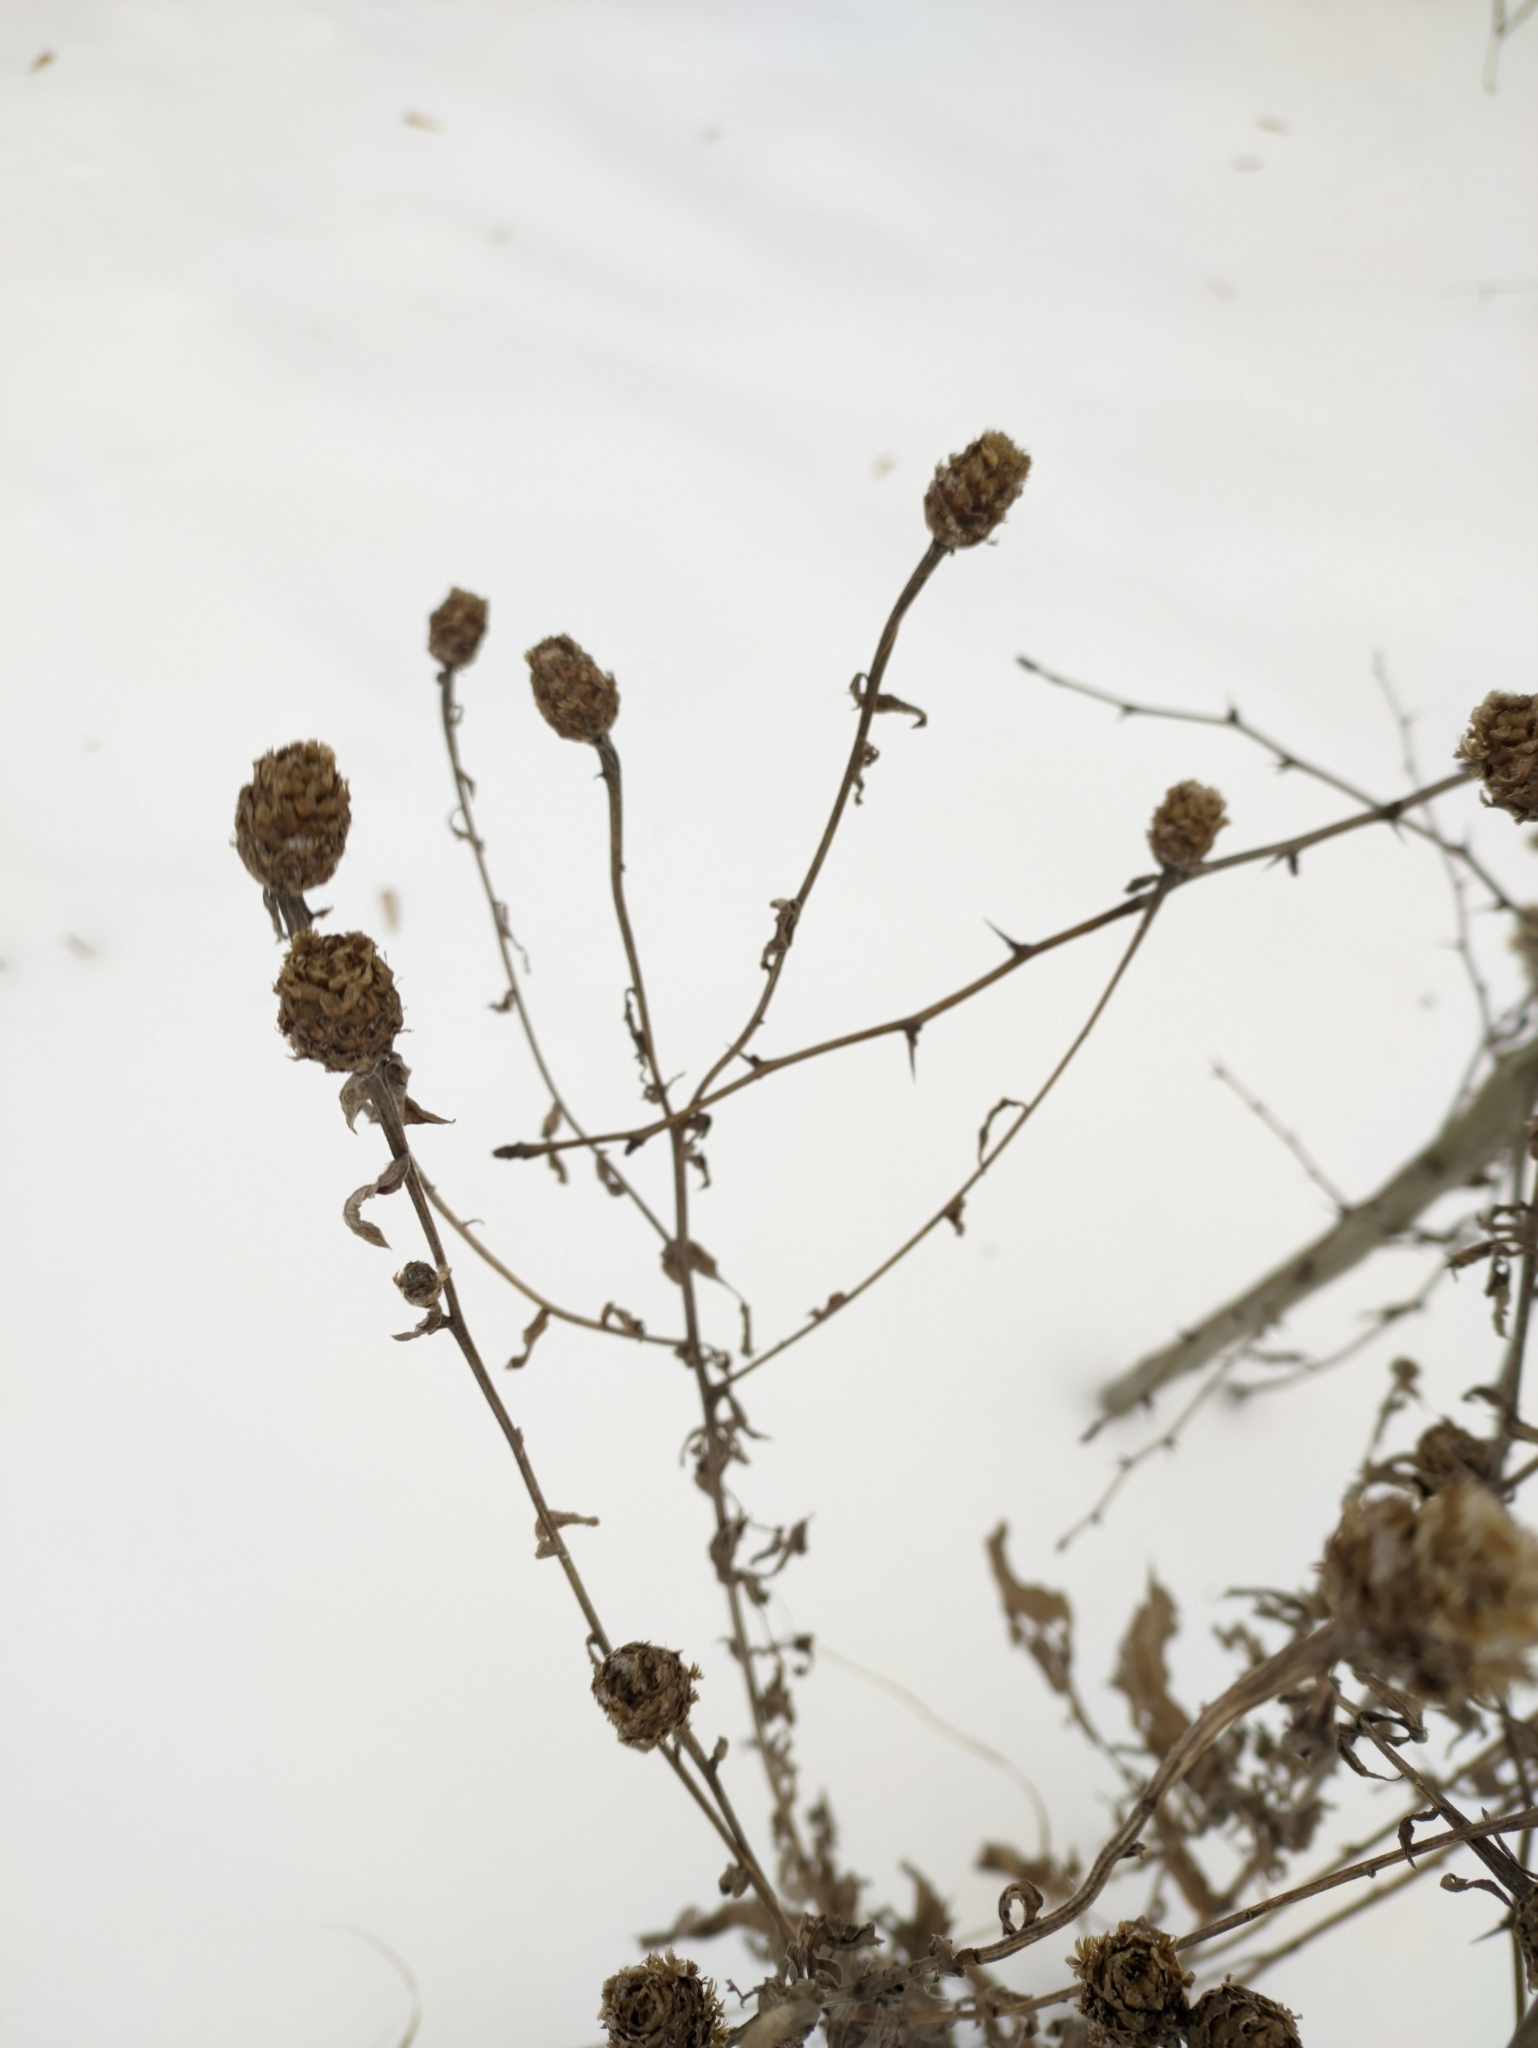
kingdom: Plantae
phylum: Tracheophyta
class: Magnoliopsida
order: Asterales
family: Asteraceae
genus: Centaurea
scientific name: Centaurea jacea
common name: Brown knapweed
